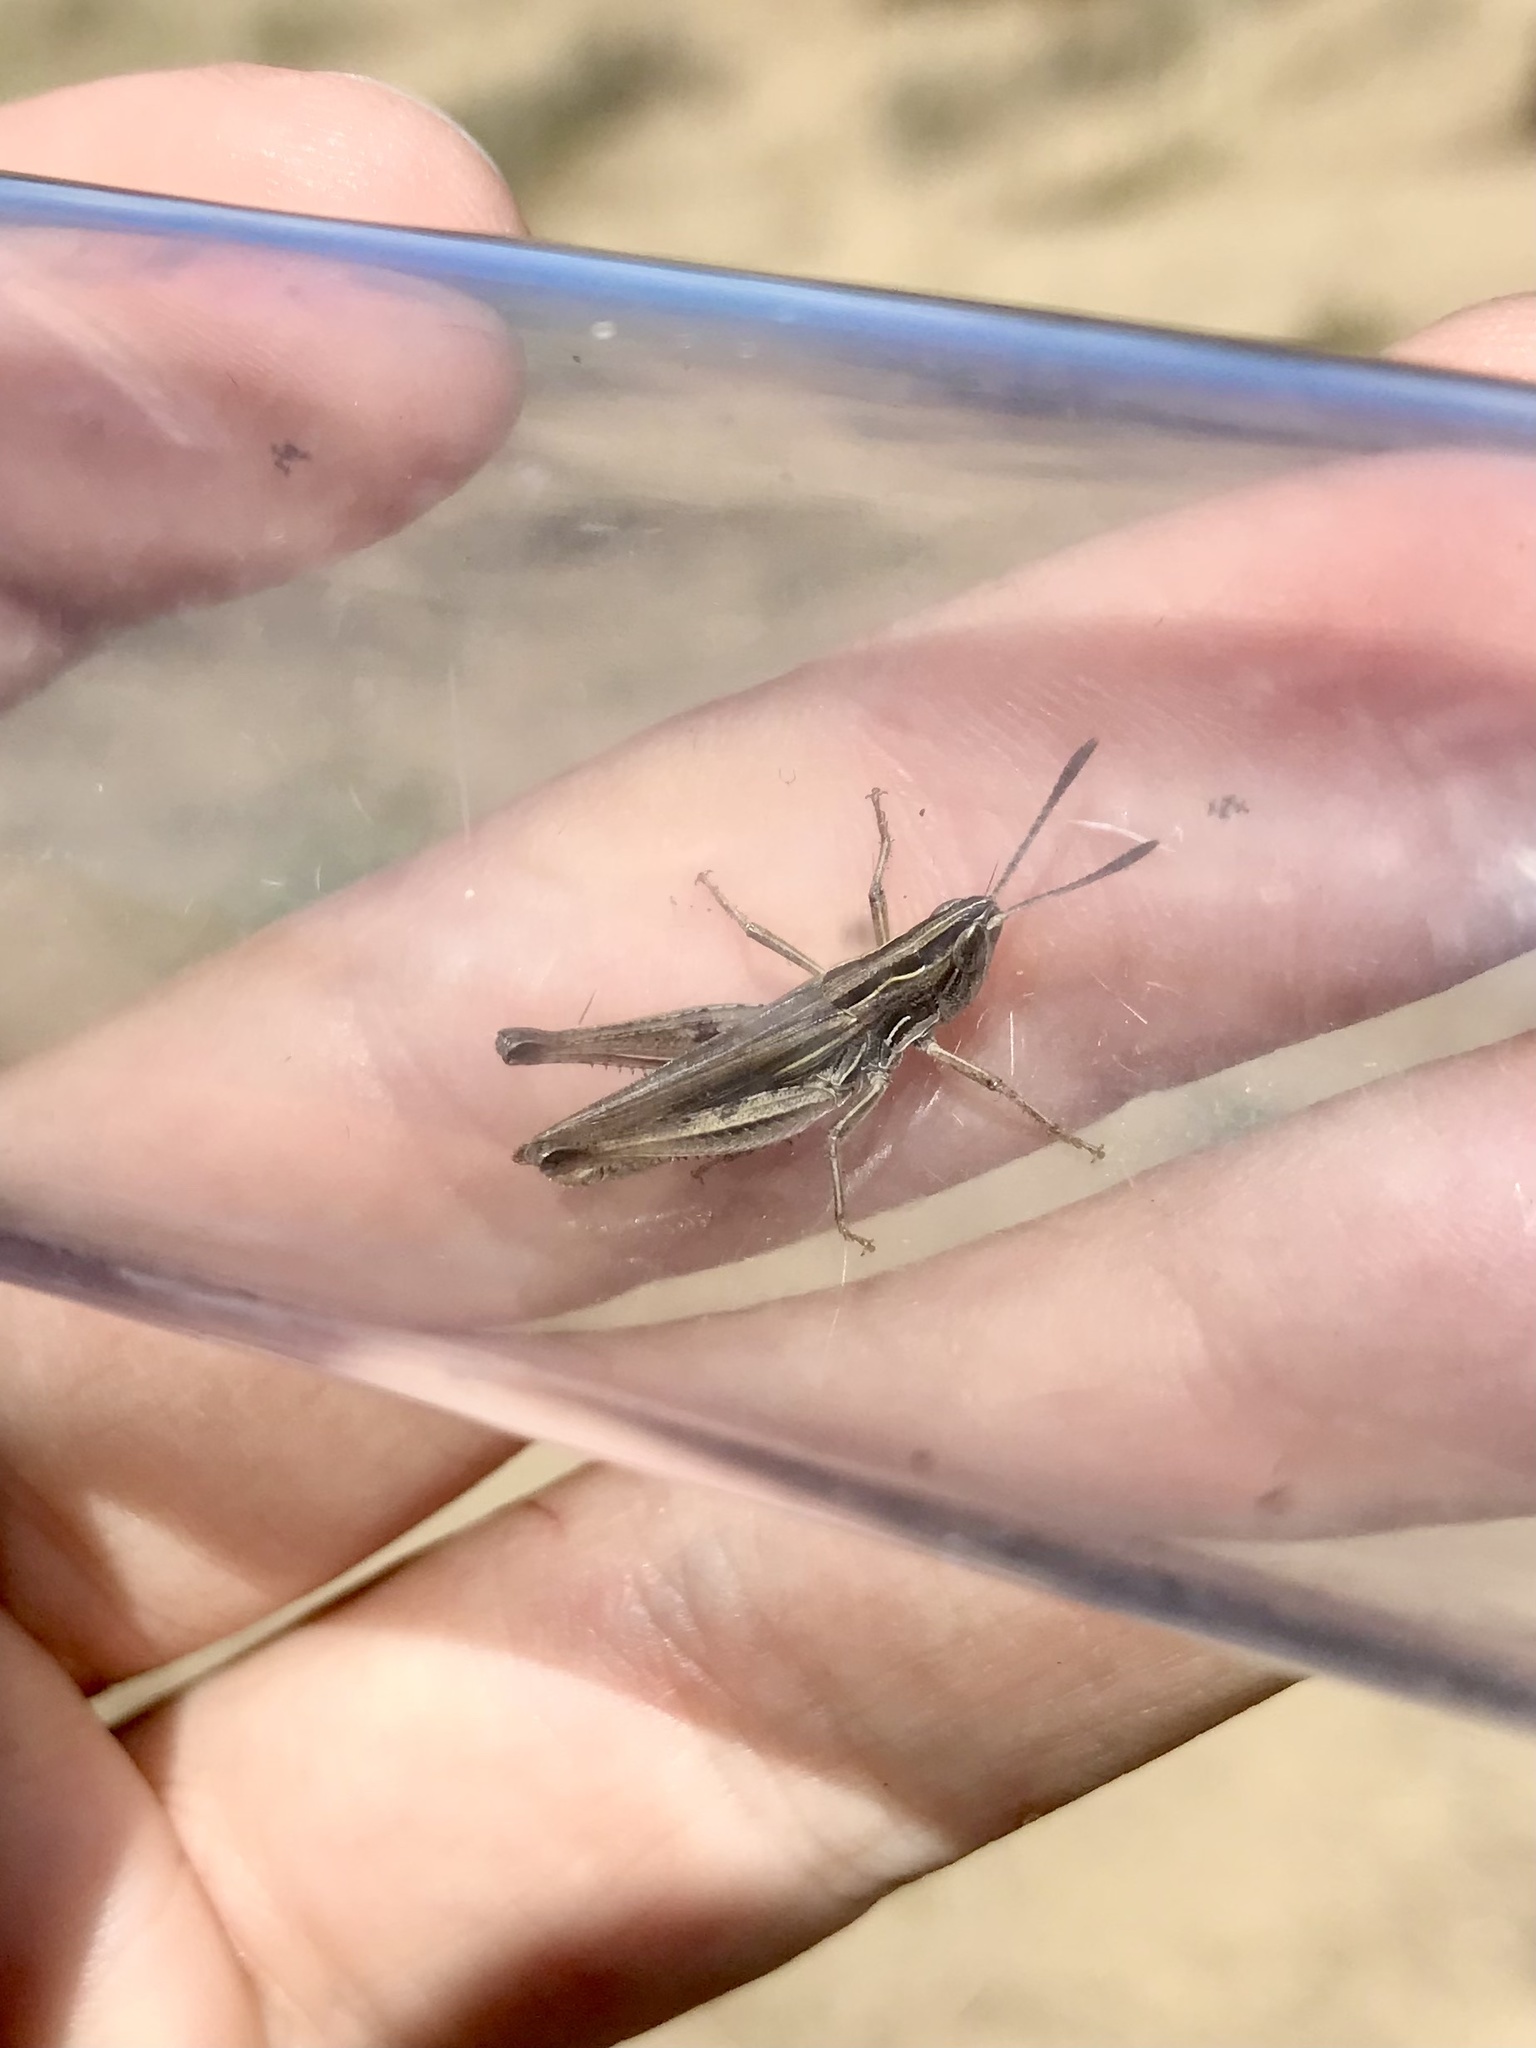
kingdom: Animalia
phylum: Arthropoda
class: Insecta
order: Orthoptera
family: Acrididae
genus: Eritettix
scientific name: Eritettix simplex
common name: Velvet-striped grasshopper
